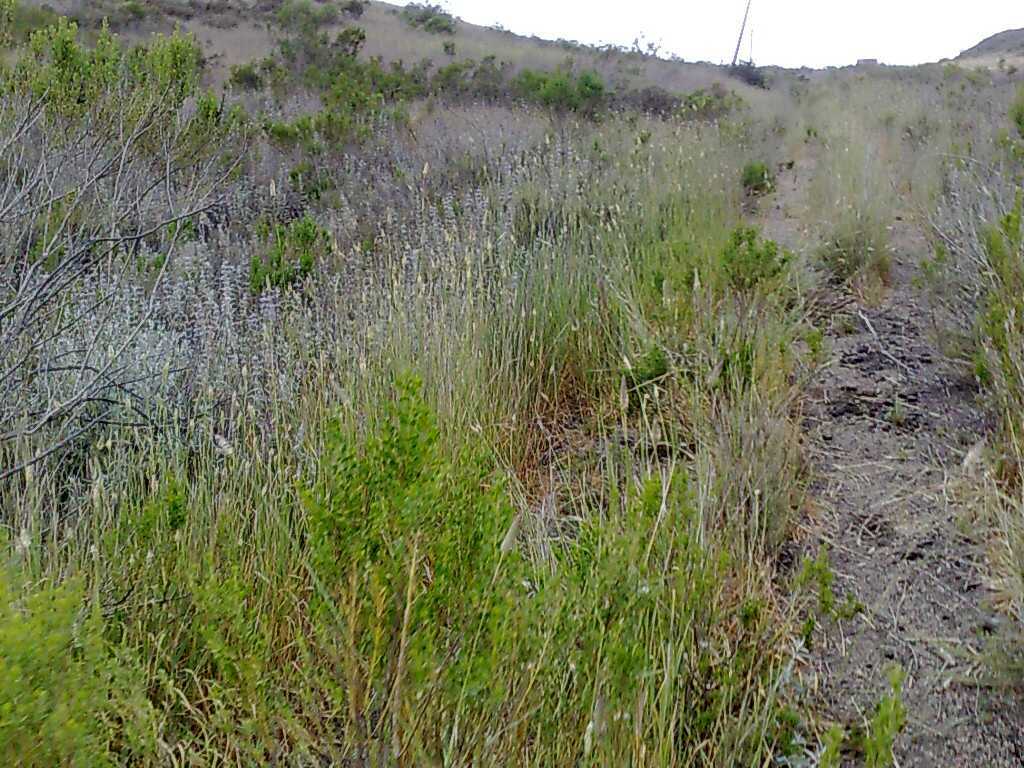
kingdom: Plantae
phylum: Tracheophyta
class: Magnoliopsida
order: Lamiales
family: Lamiaceae
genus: Salvia
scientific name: Salvia leucophylla
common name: Purple sage
